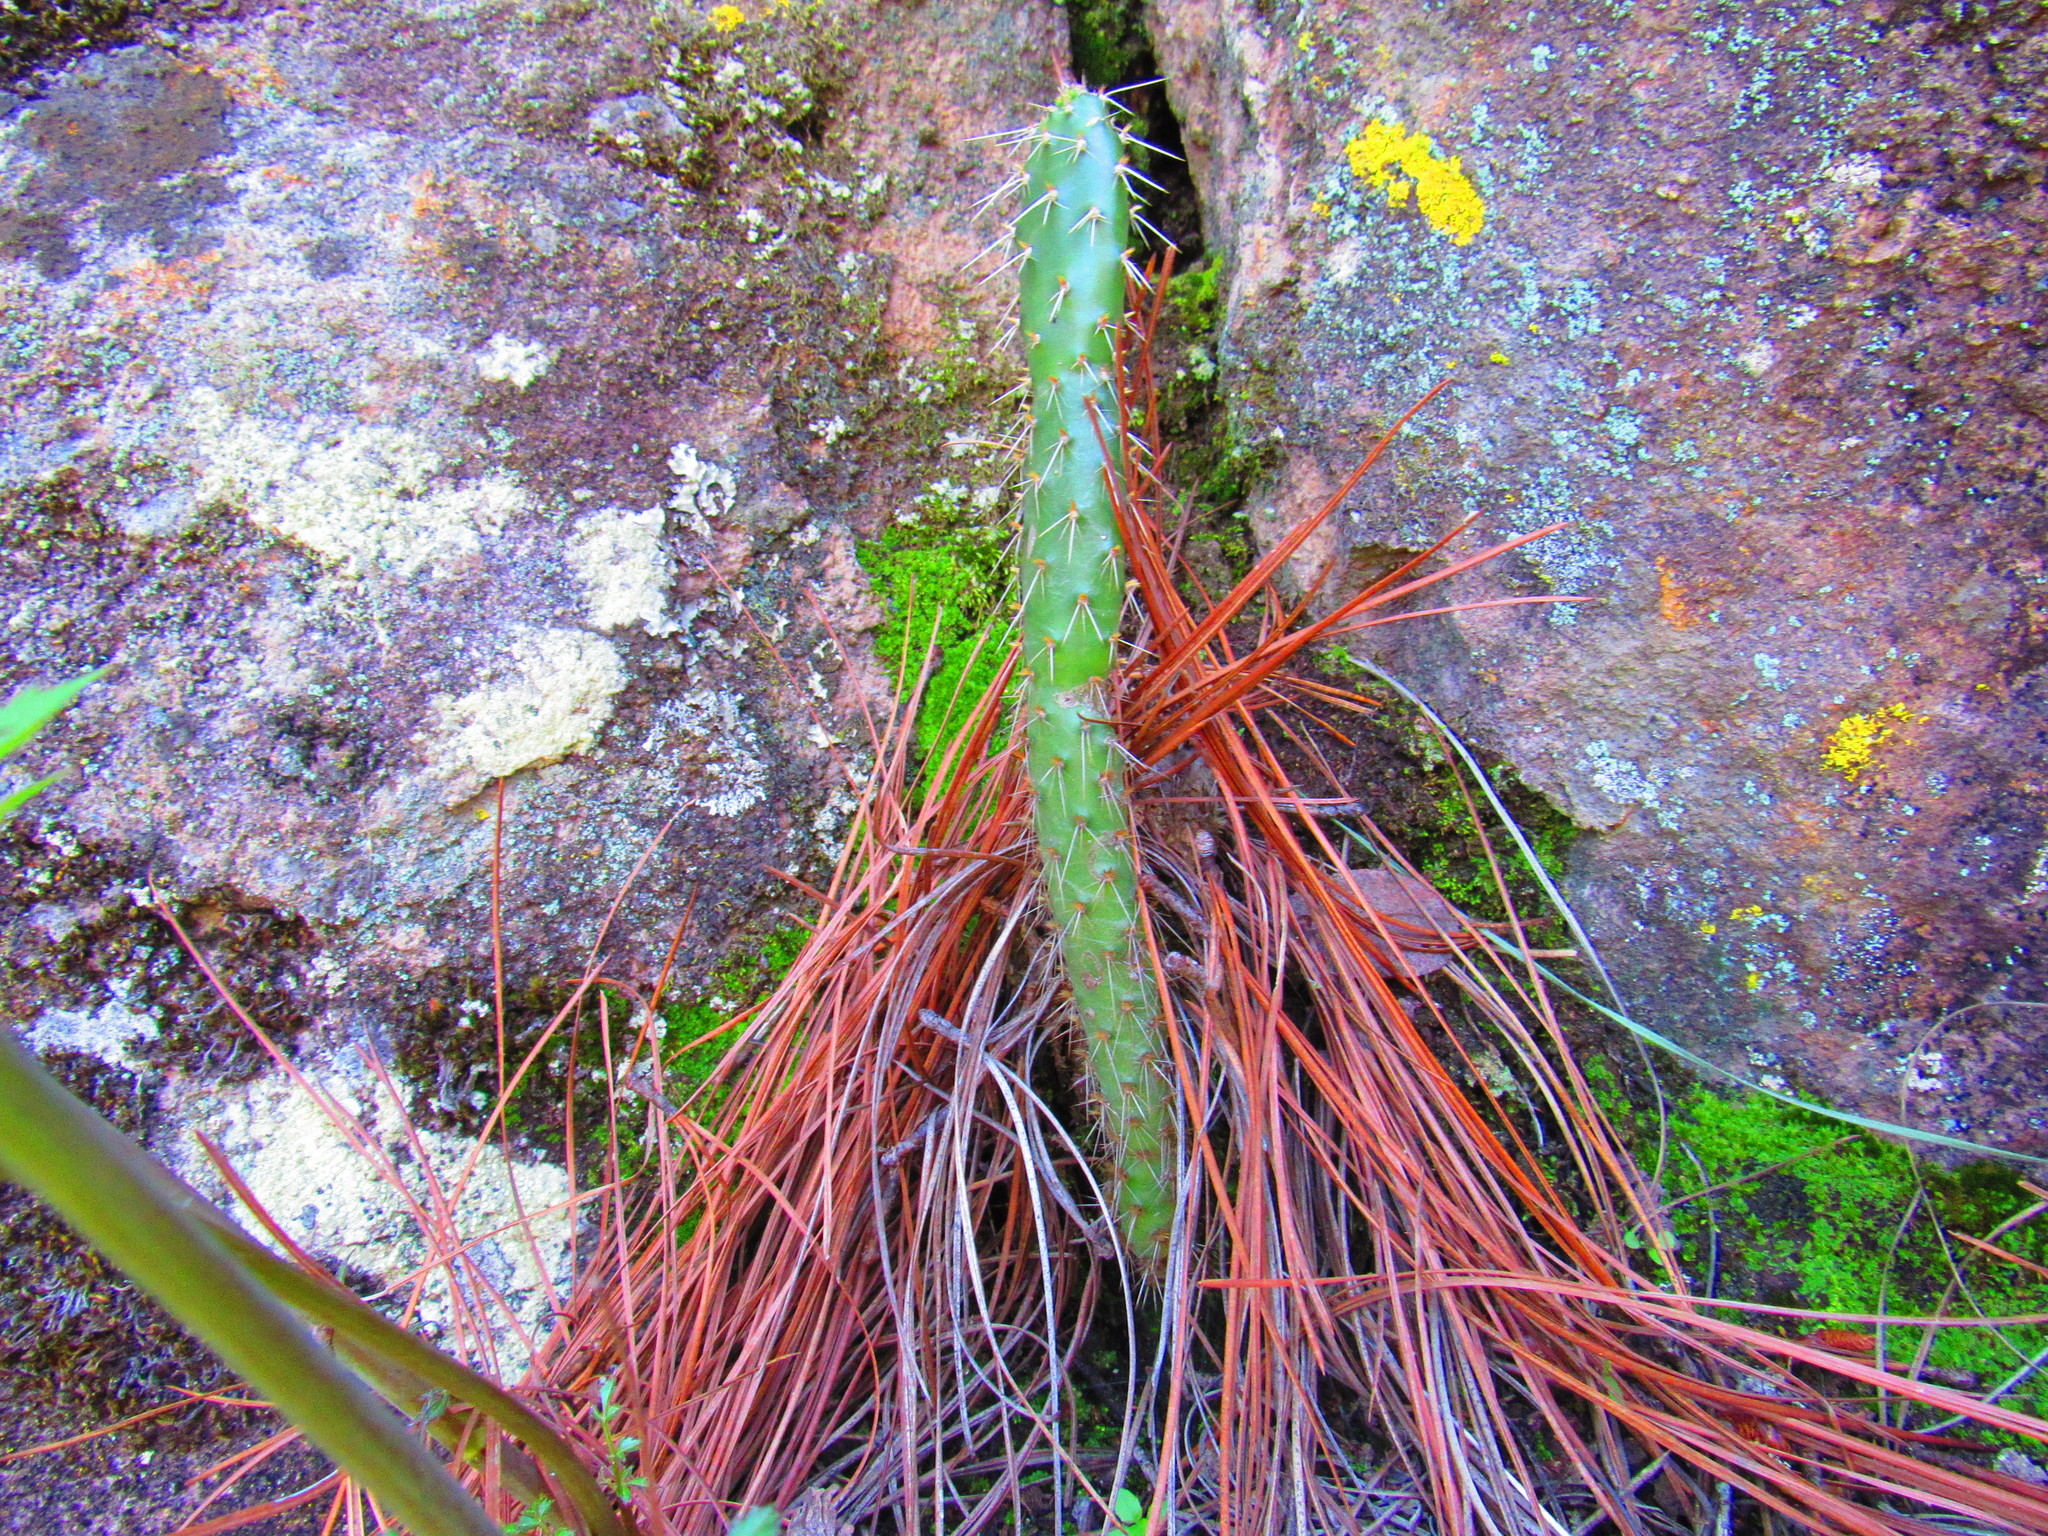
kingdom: Plantae
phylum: Tracheophyta
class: Magnoliopsida
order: Caryophyllales
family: Cactaceae
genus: Opuntia
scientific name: Opuntia streptacantha
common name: Gracemere-pear
